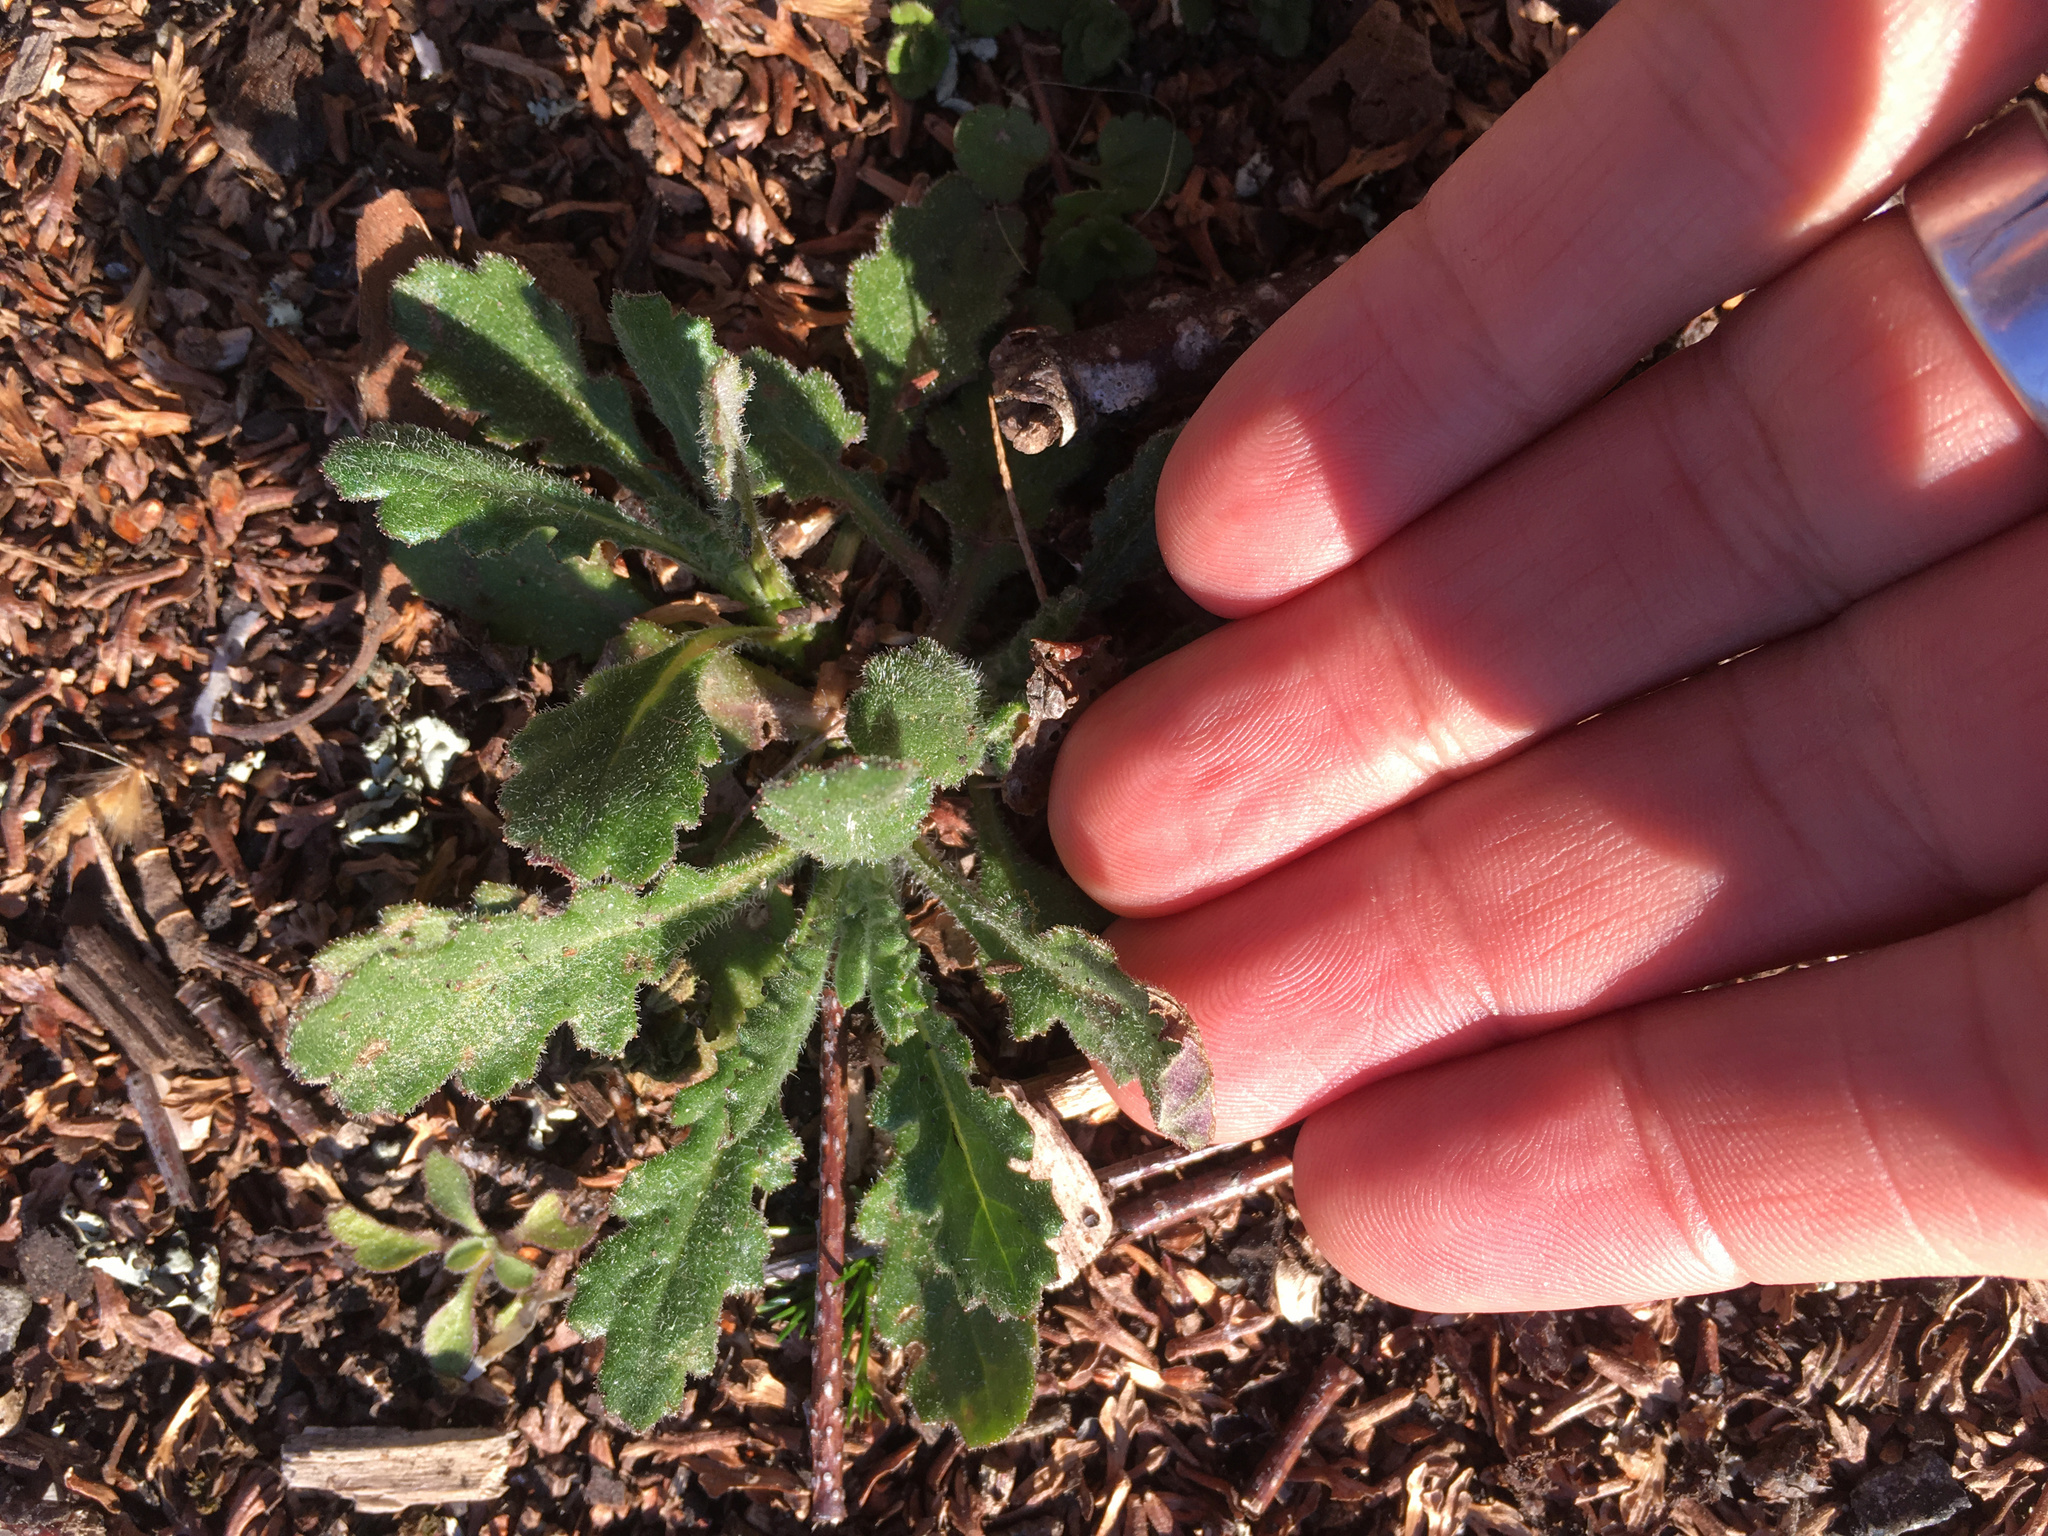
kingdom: Plantae
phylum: Tracheophyta
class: Magnoliopsida
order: Asterales
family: Asteraceae
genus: Senecio
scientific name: Senecio glomeratus
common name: Cutleaf burnweed
